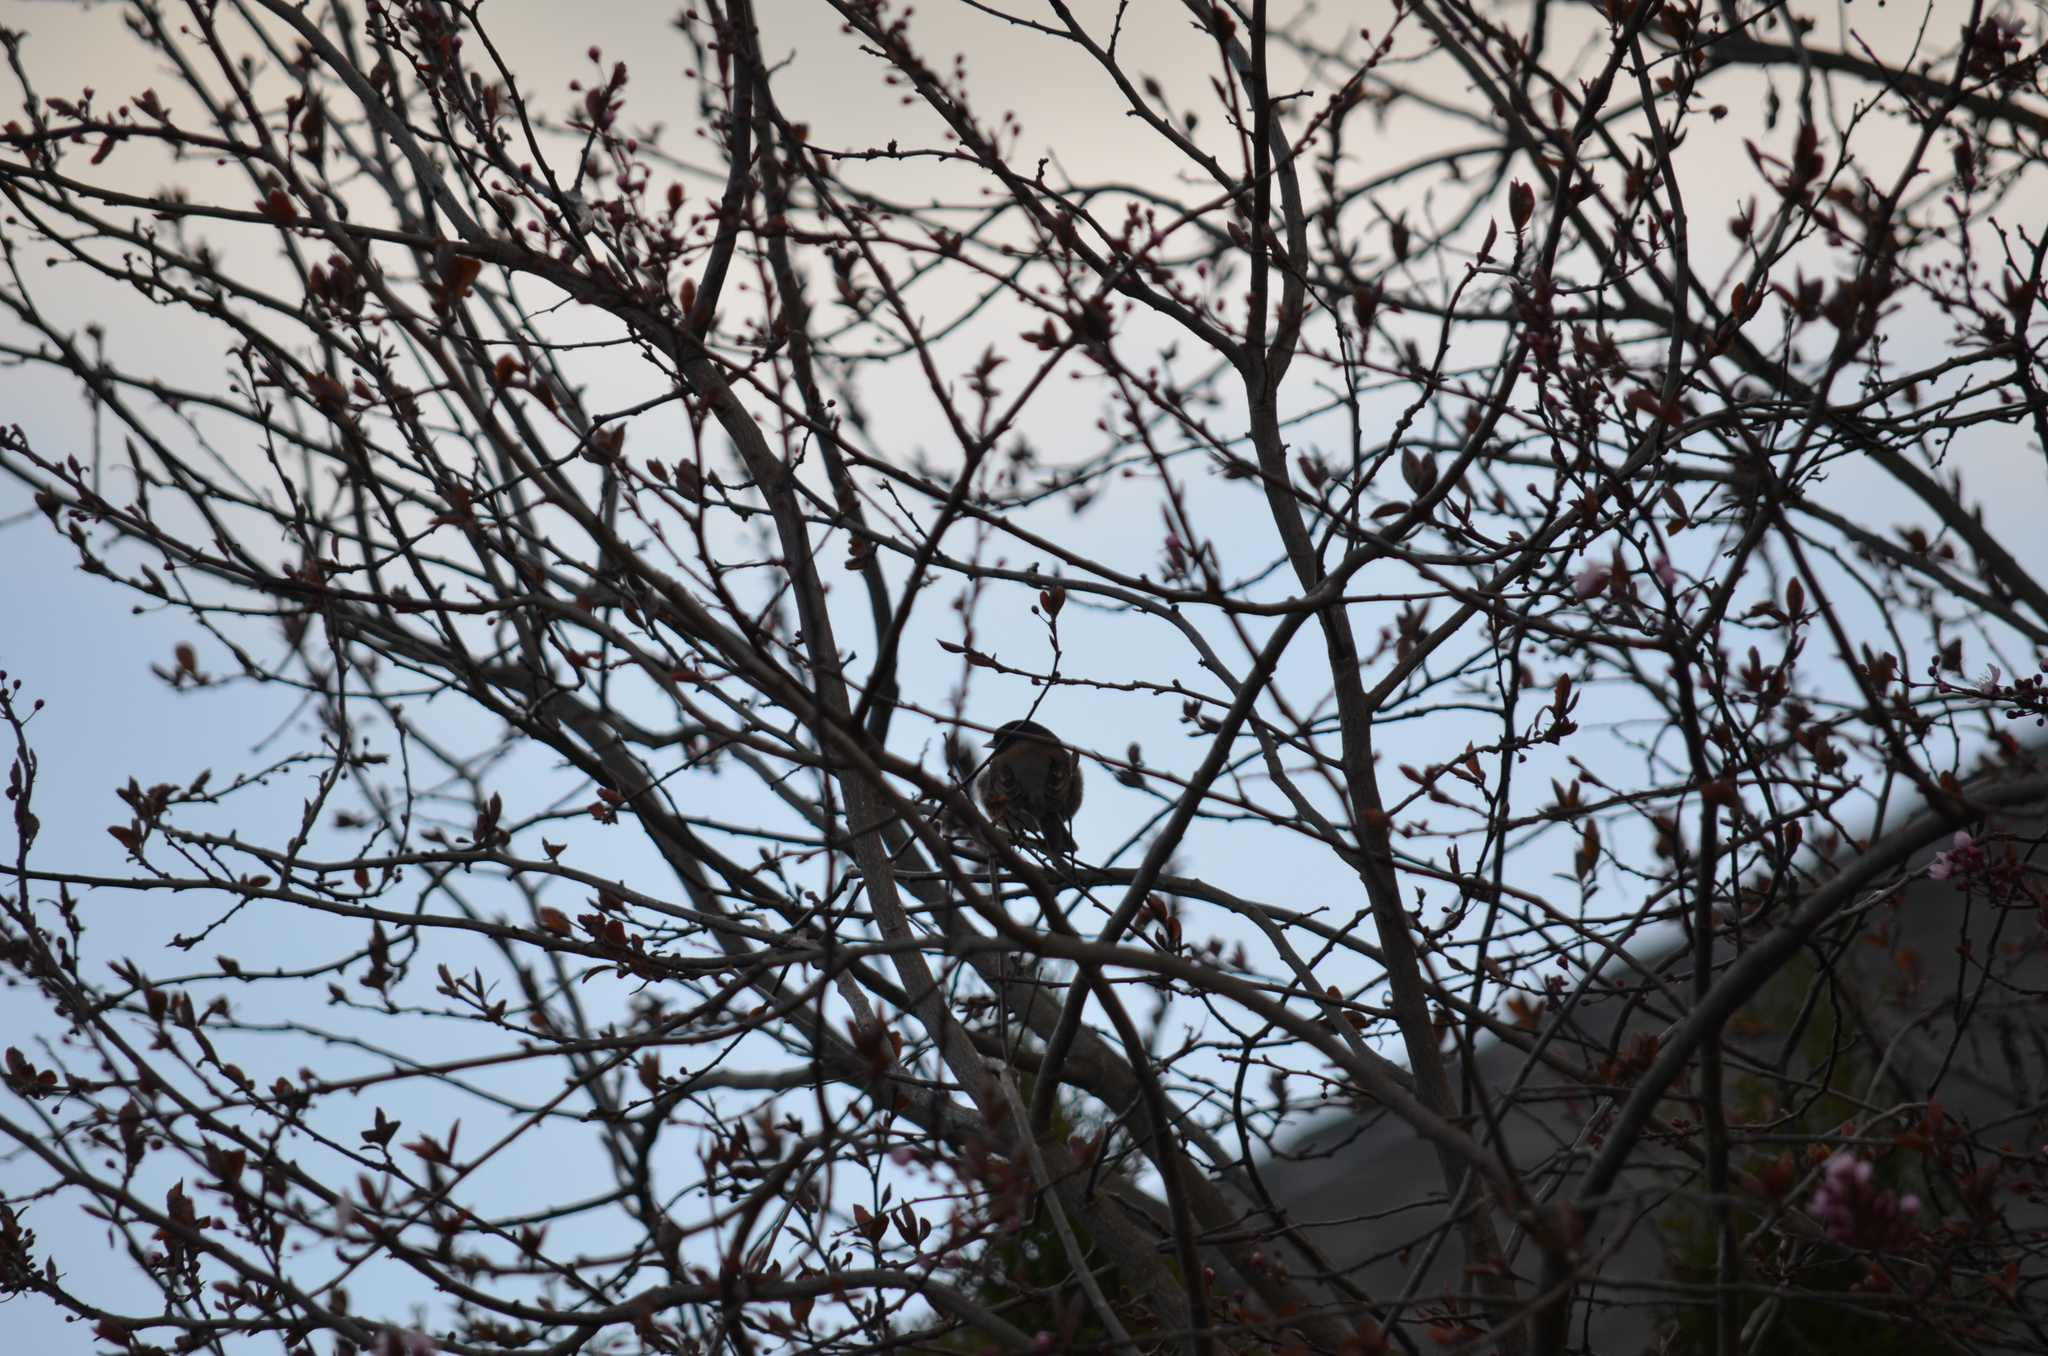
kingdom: Animalia
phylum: Chordata
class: Aves
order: Passeriformes
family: Passerellidae
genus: Junco
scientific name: Junco hyemalis
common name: Dark-eyed junco
